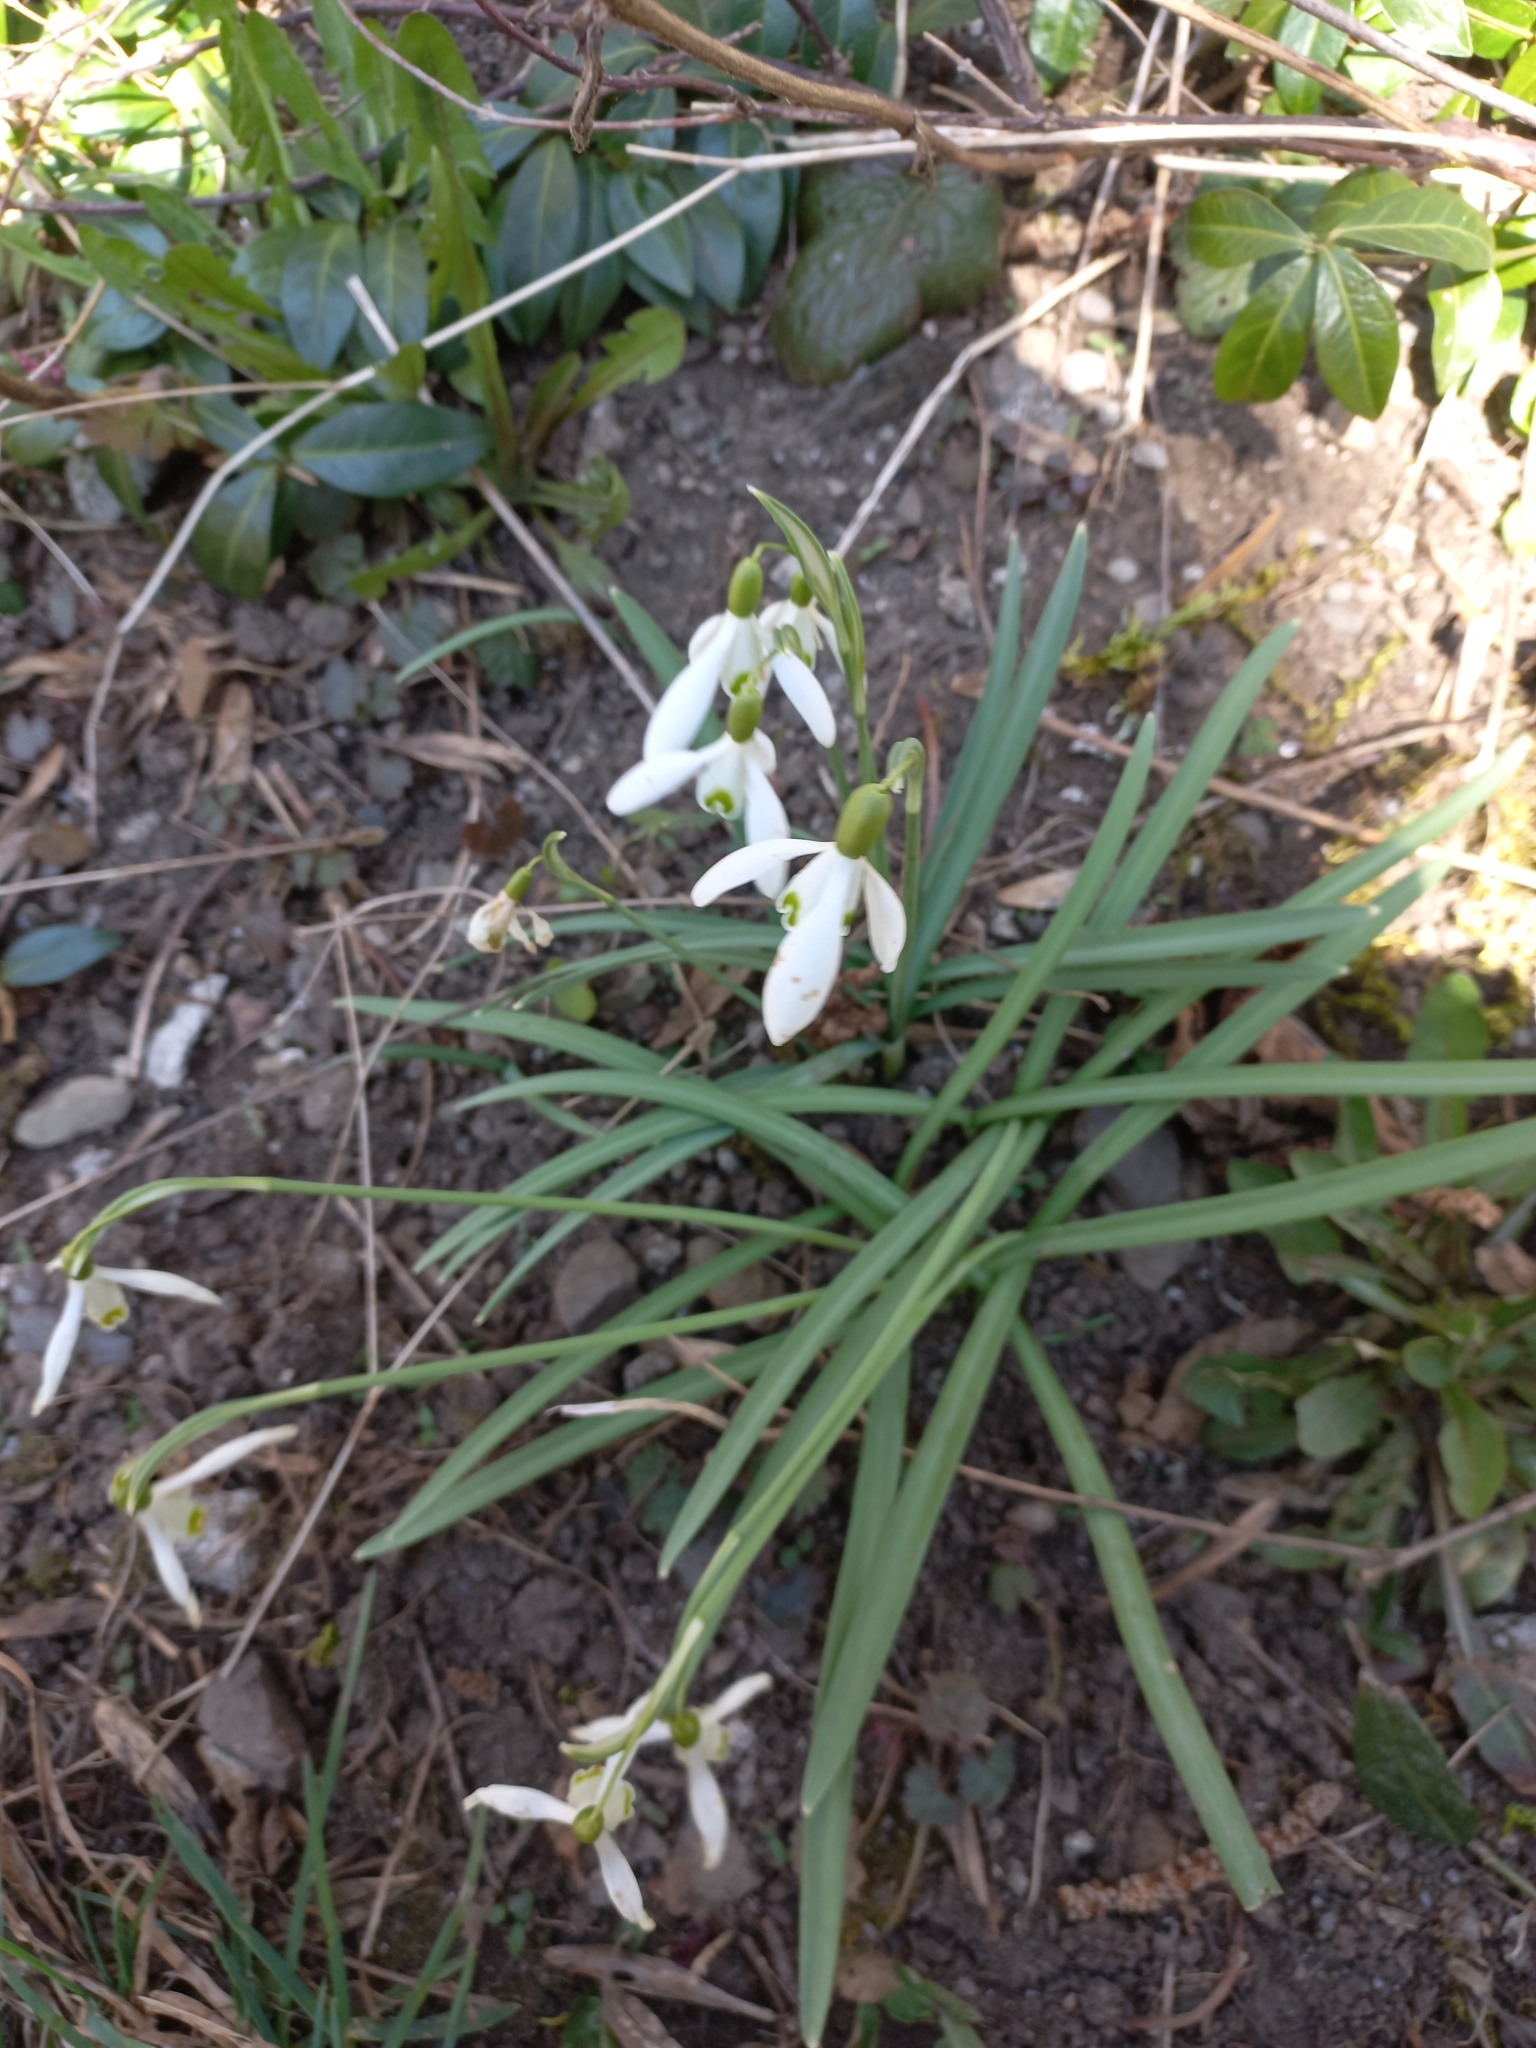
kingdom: Plantae
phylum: Tracheophyta
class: Liliopsida
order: Asparagales
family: Amaryllidaceae
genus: Galanthus
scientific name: Galanthus nivalis
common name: Snowdrop
